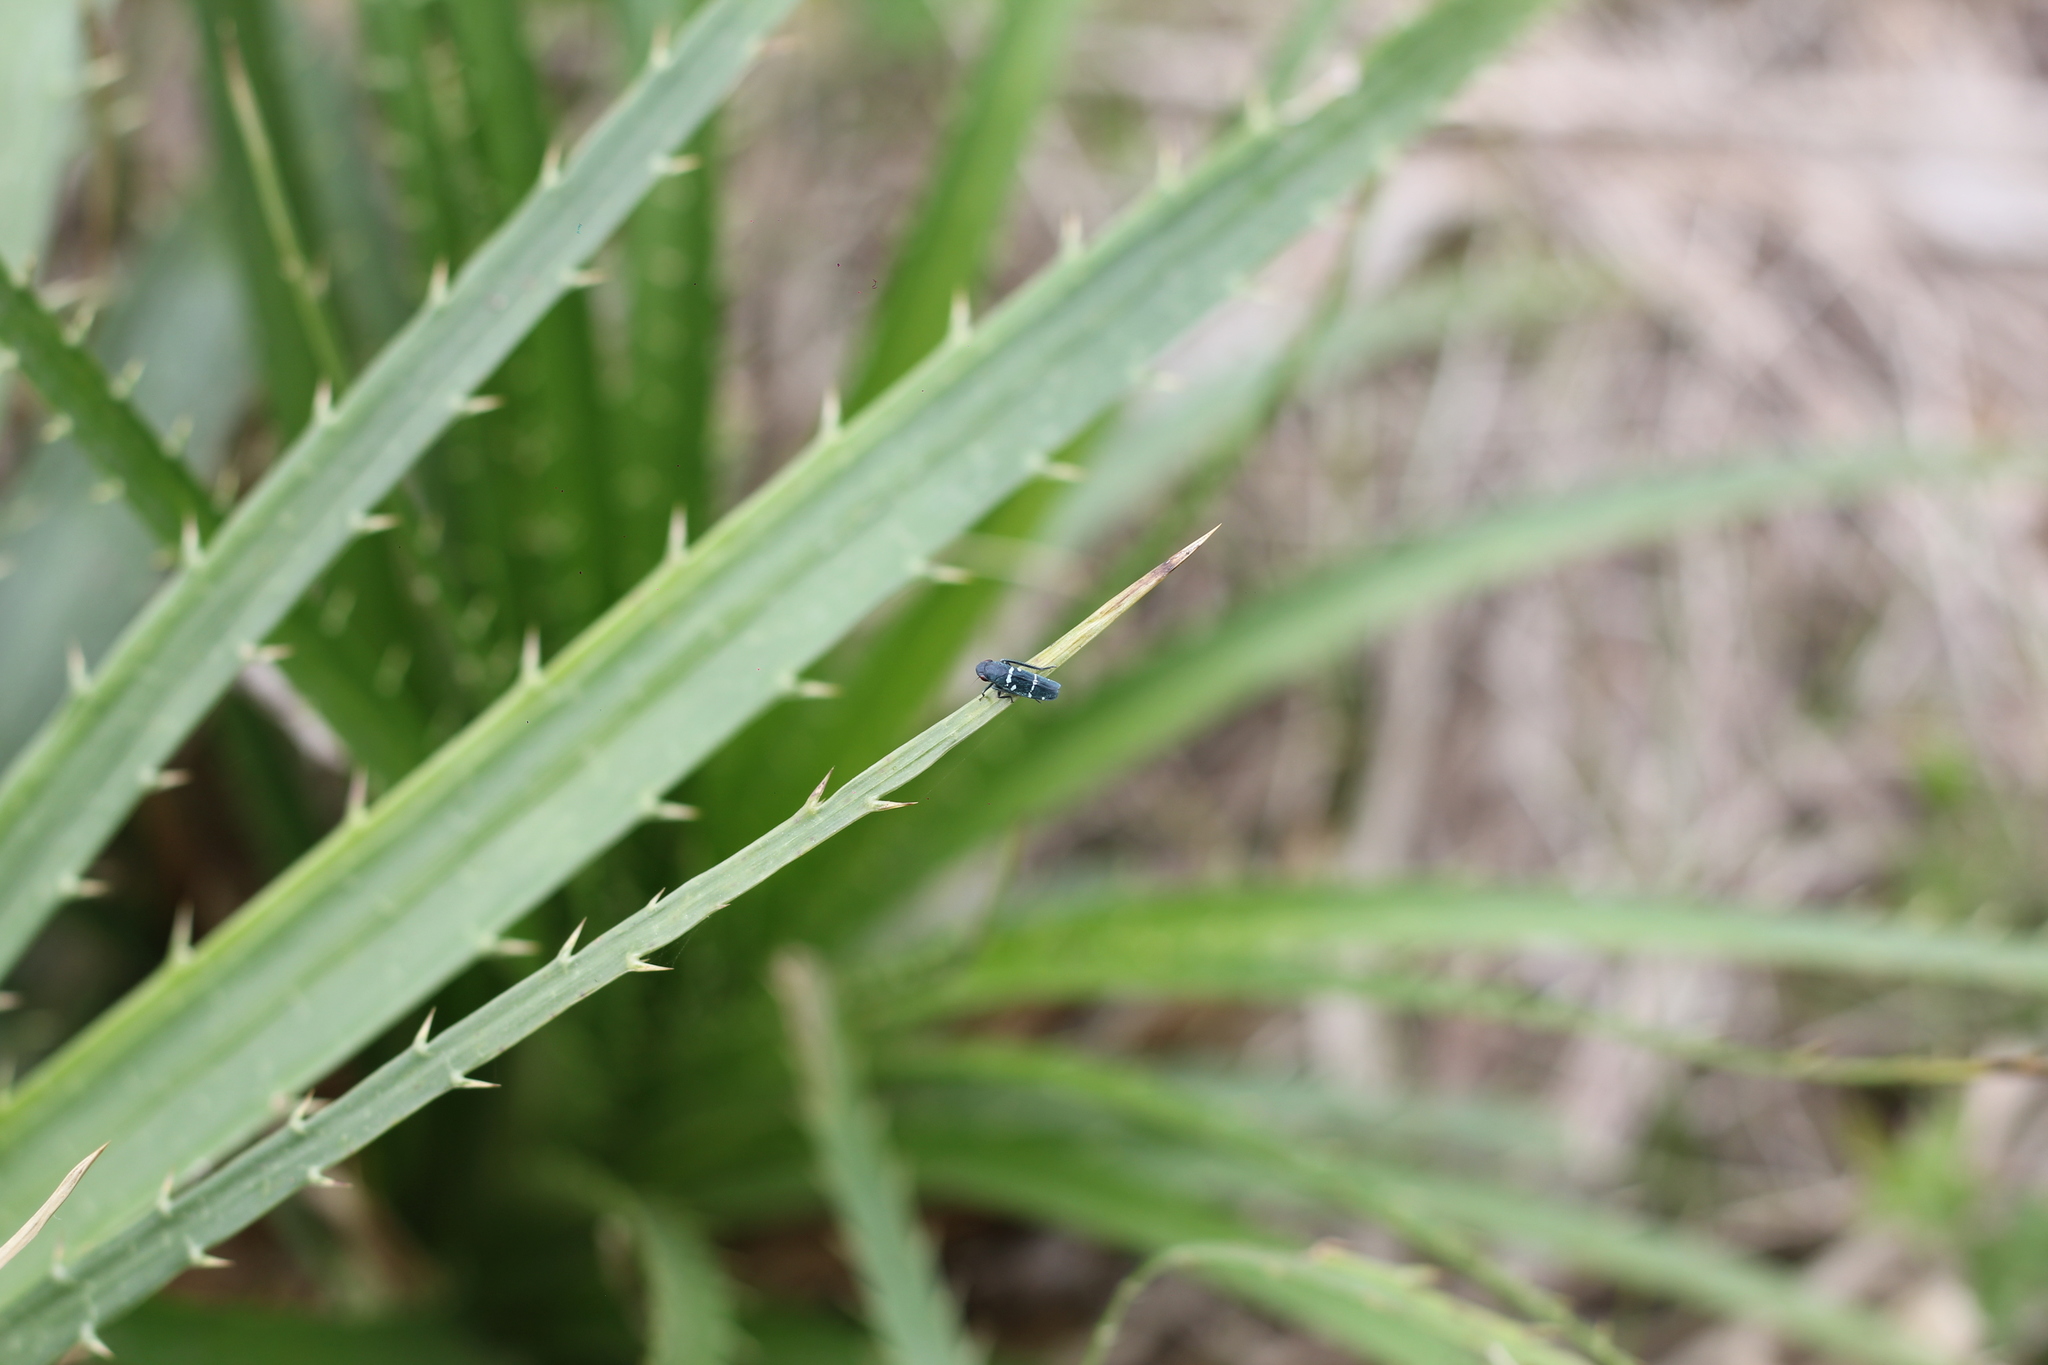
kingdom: Animalia
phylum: Arthropoda
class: Insecta
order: Hemiptera
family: Cicadellidae
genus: Balacha
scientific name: Balacha similis
